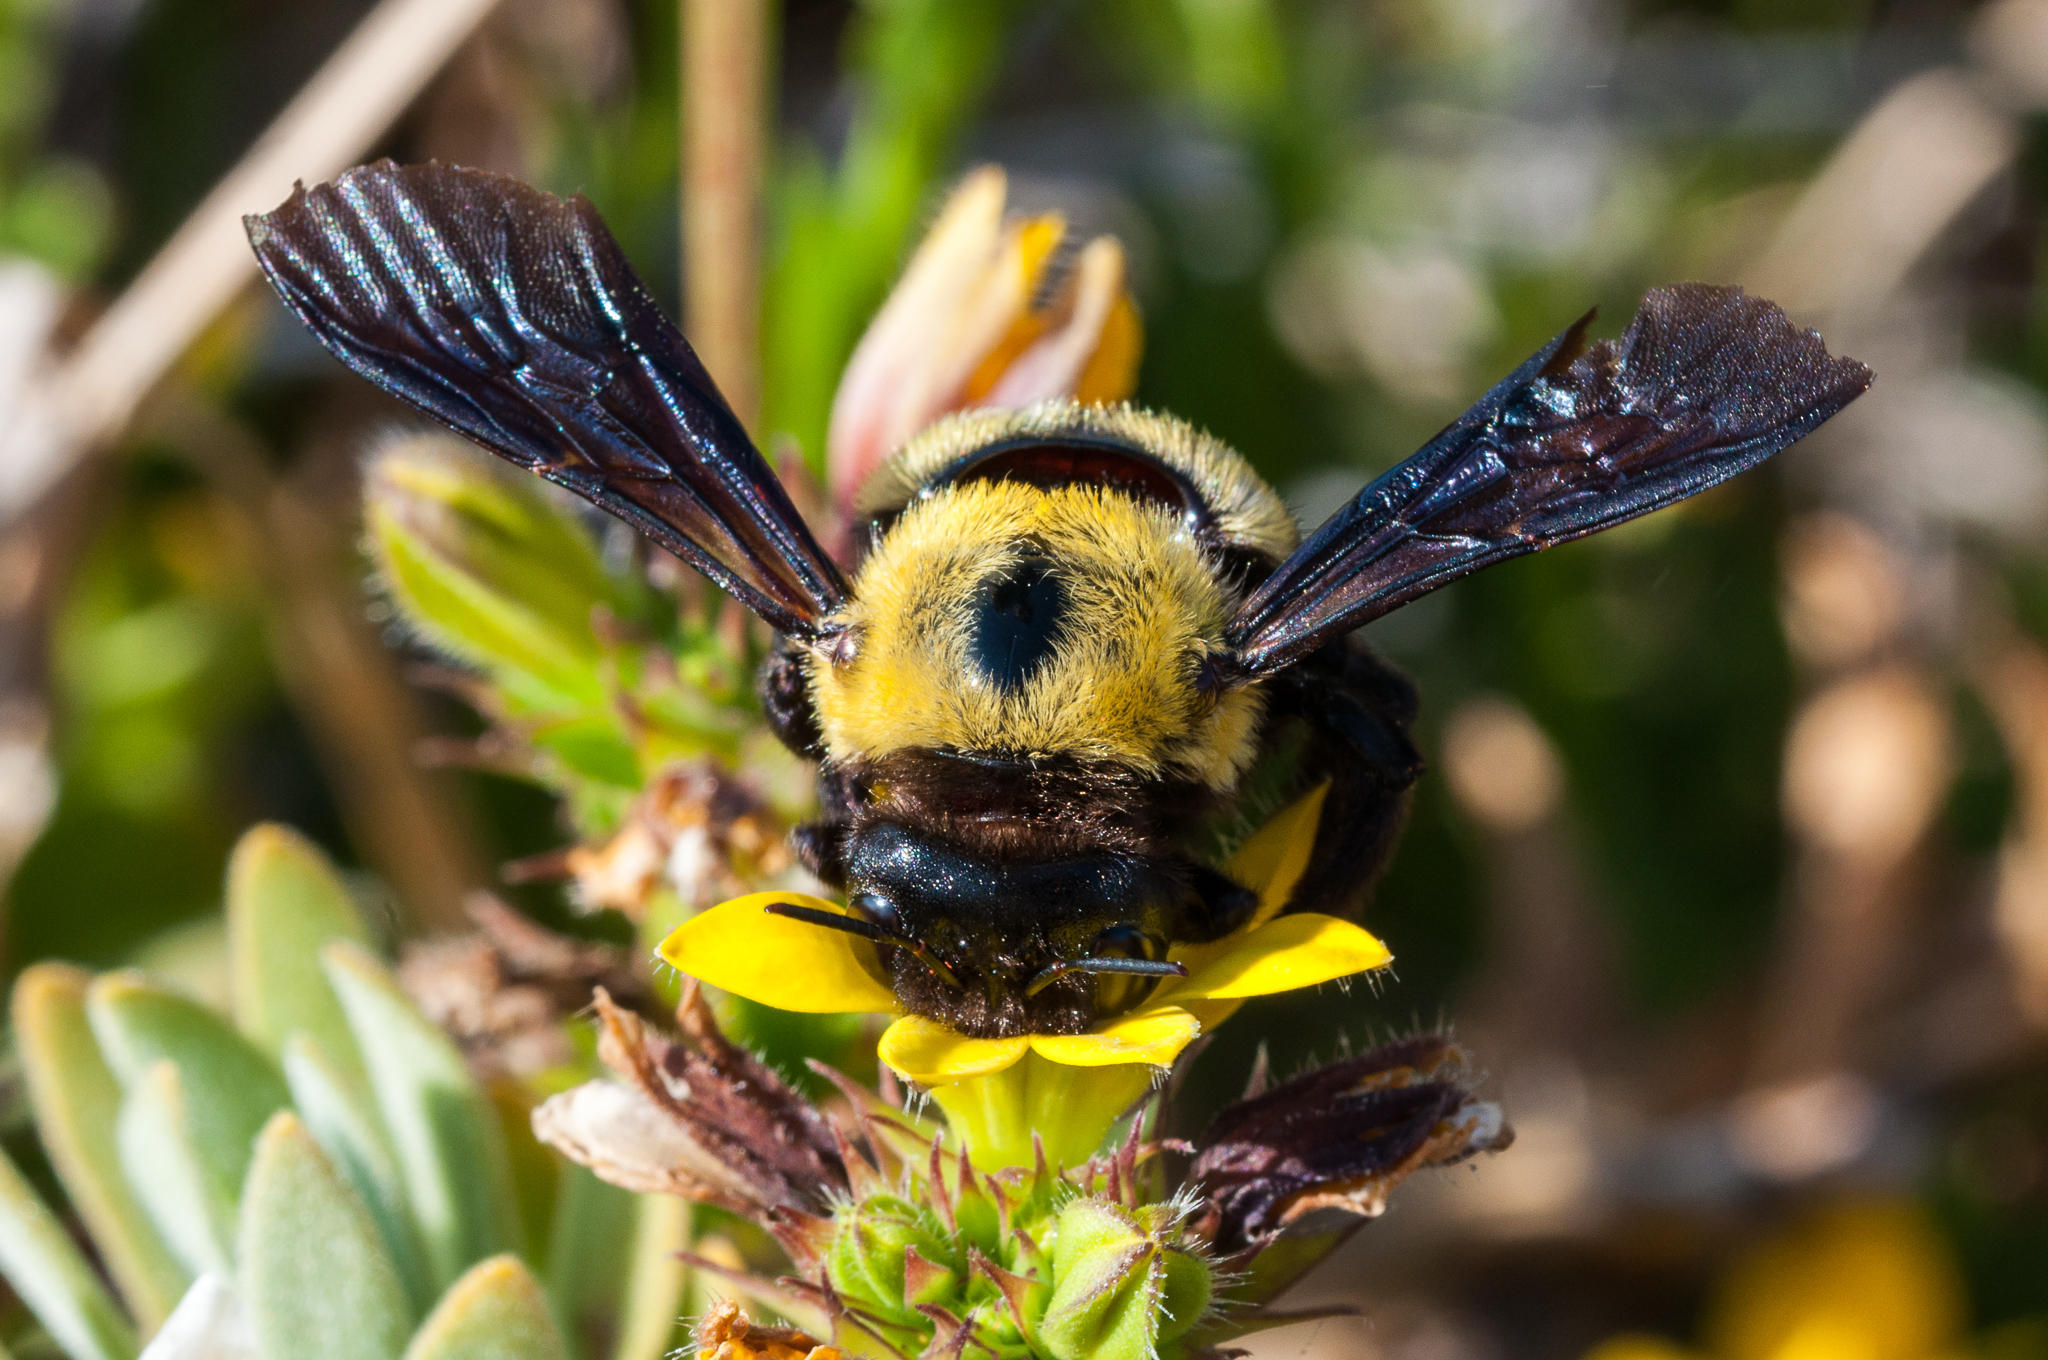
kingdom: Animalia
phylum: Arthropoda
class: Insecta
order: Hymenoptera
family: Apidae
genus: Xylocopa
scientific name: Xylocopa watmoughi
